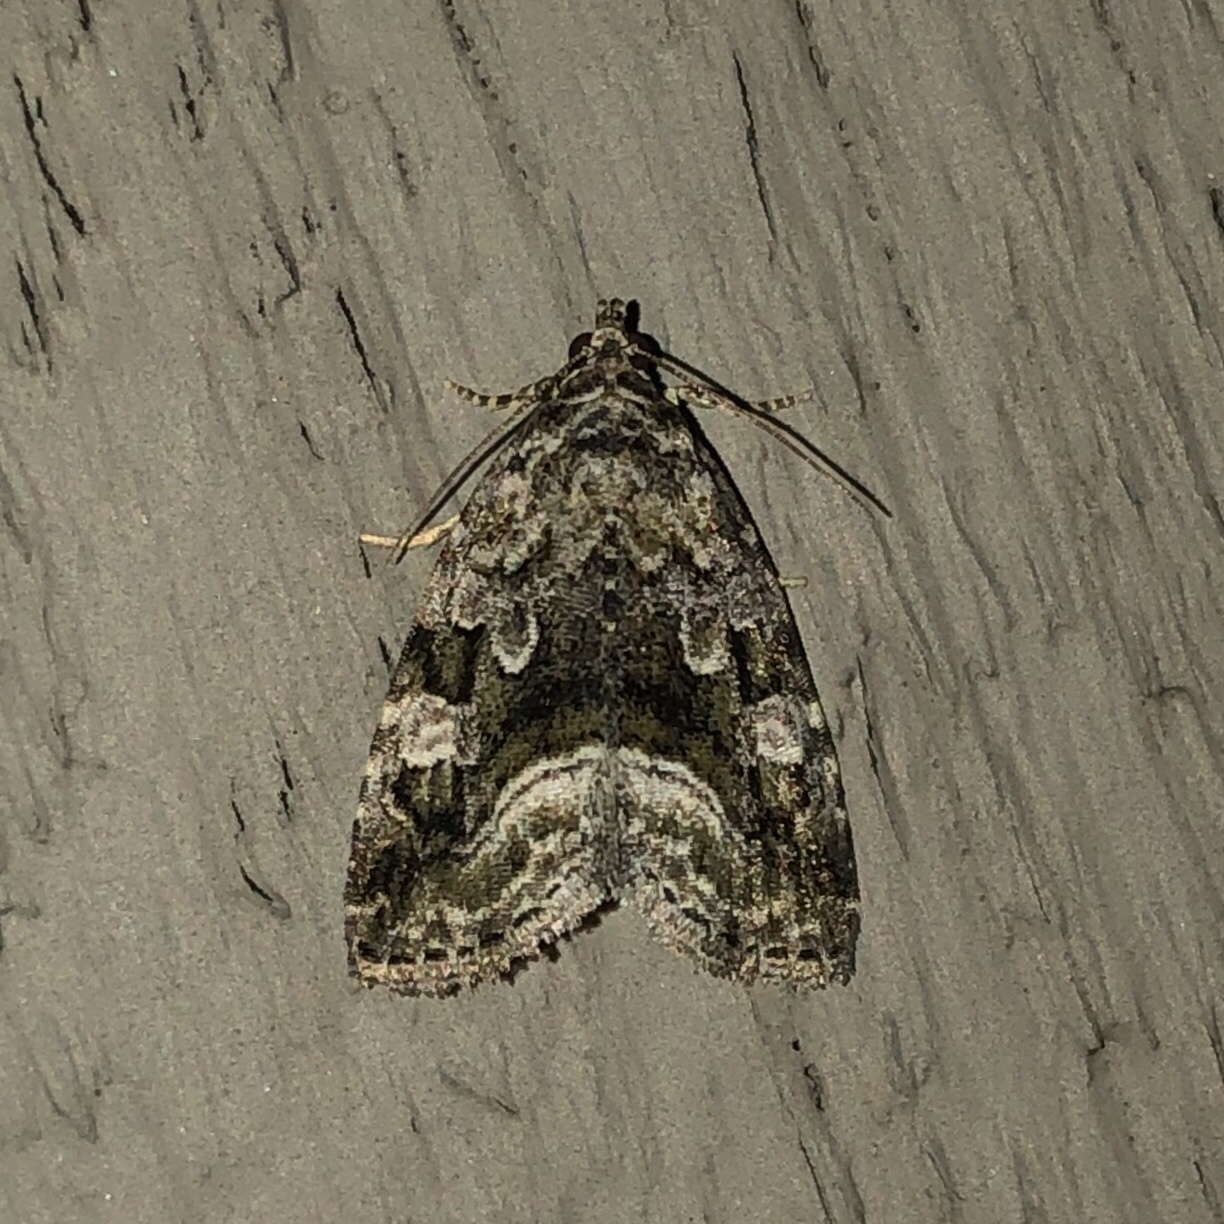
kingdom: Animalia
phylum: Arthropoda
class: Insecta
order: Lepidoptera
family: Noctuidae
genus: Protodeltote
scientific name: Protodeltote muscosula
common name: Large mossy glyph
